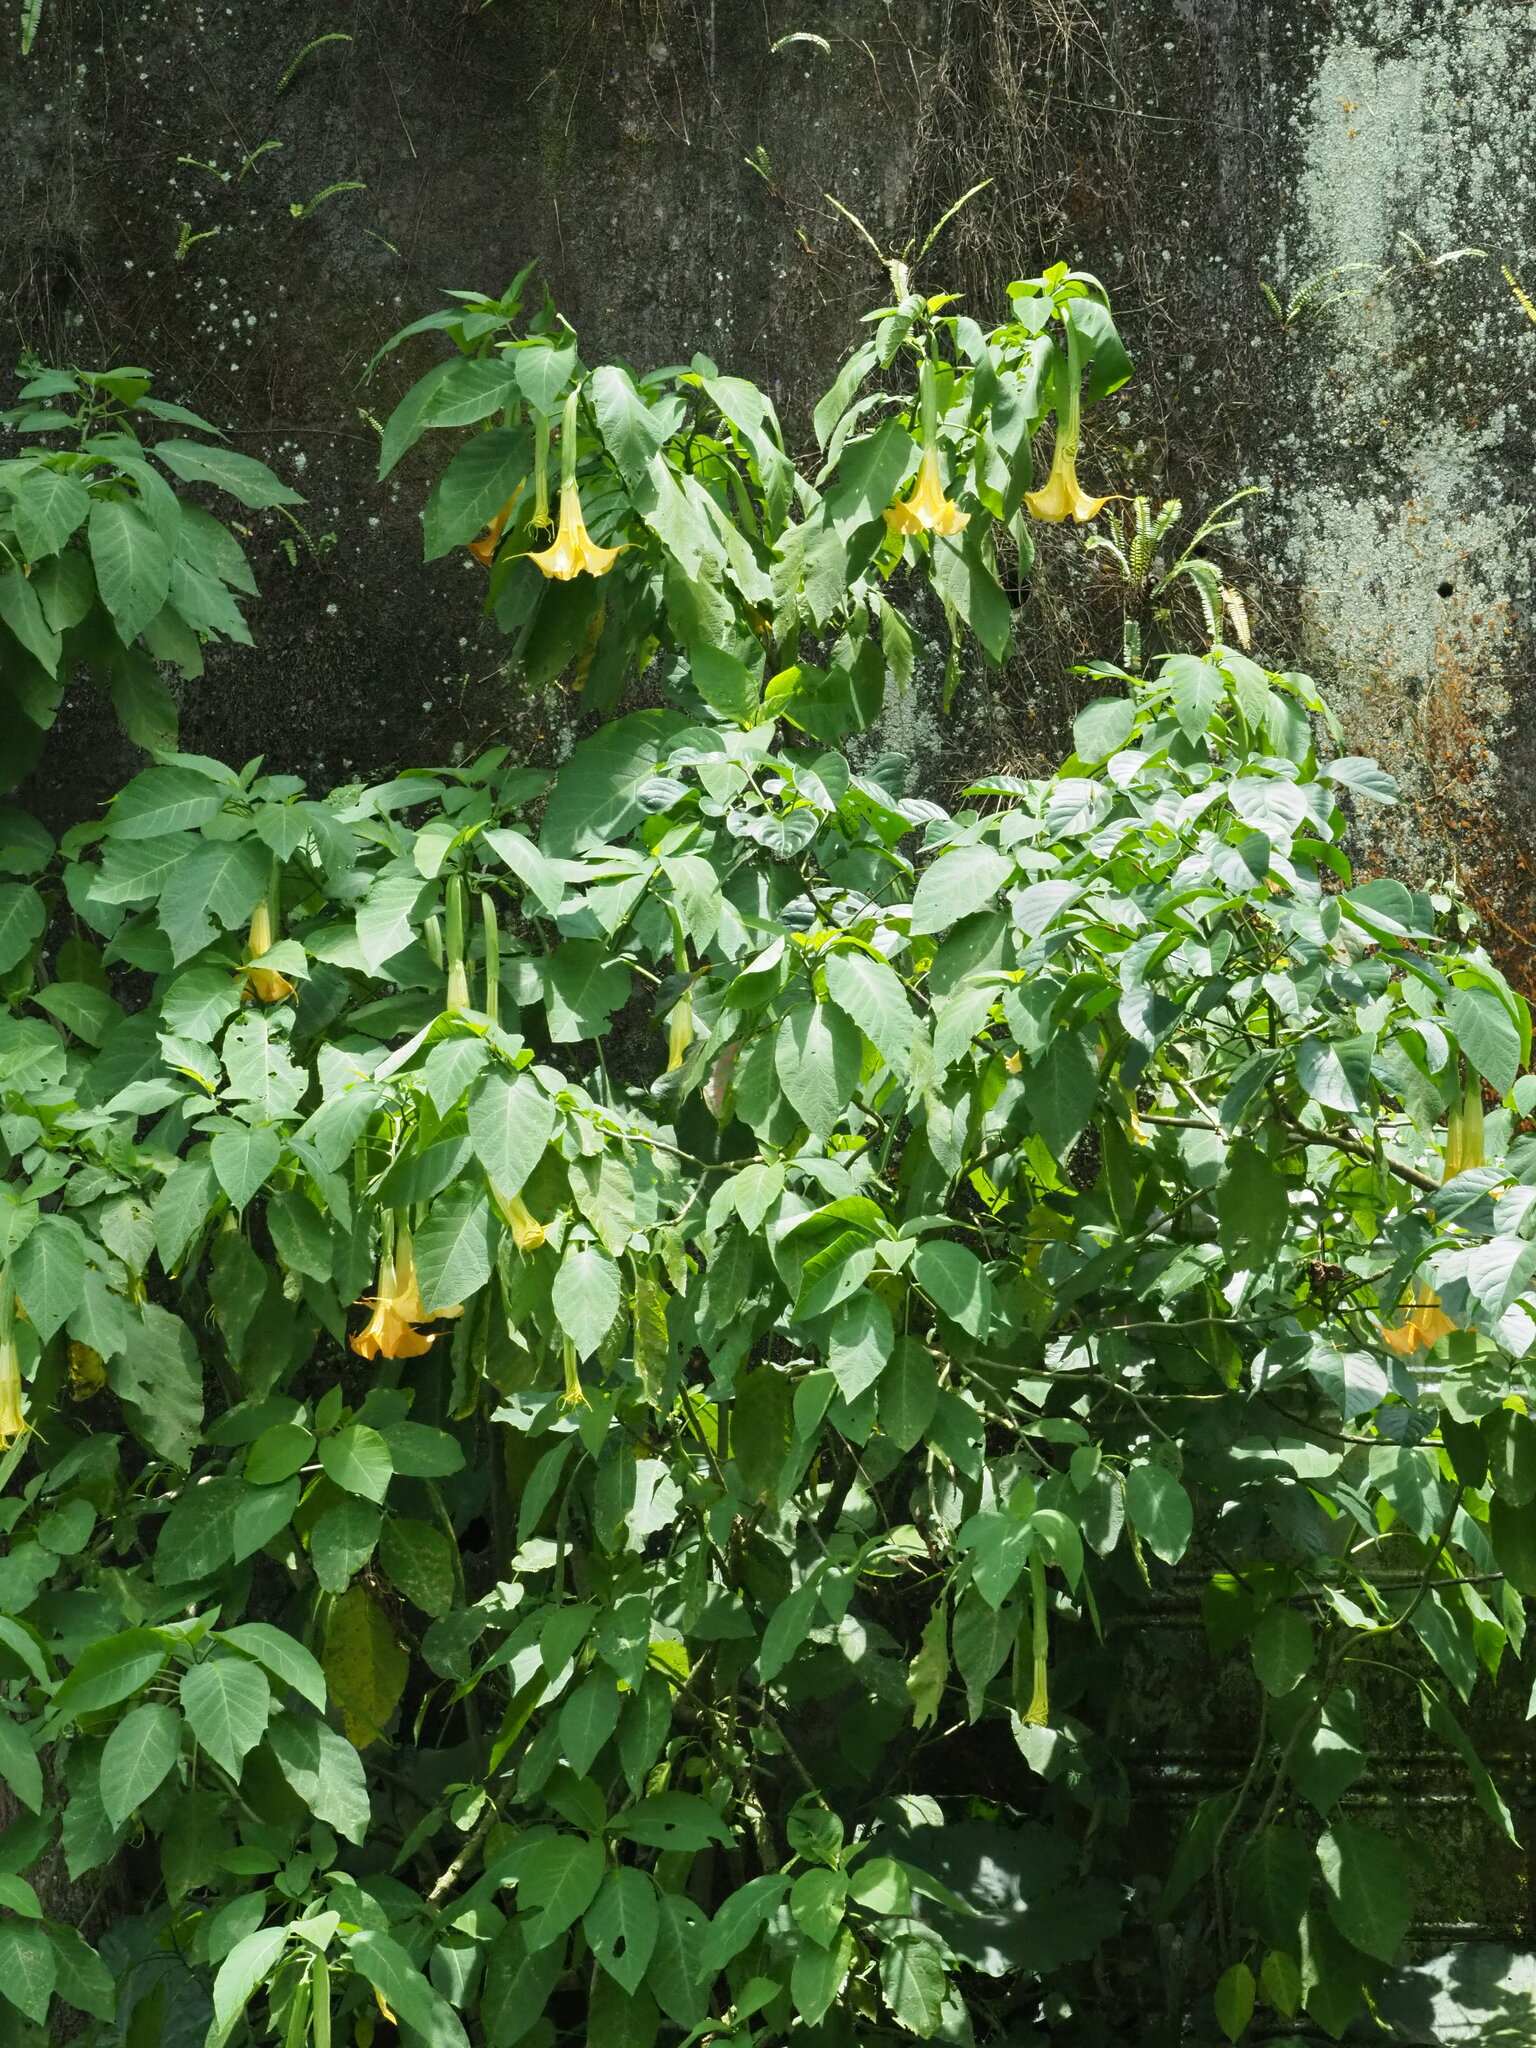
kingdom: Plantae
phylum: Tracheophyta
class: Magnoliopsida
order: Solanales
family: Solanaceae
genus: Brugmansia
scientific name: Brugmansia aurea
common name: Yellow angel's-trumpet
